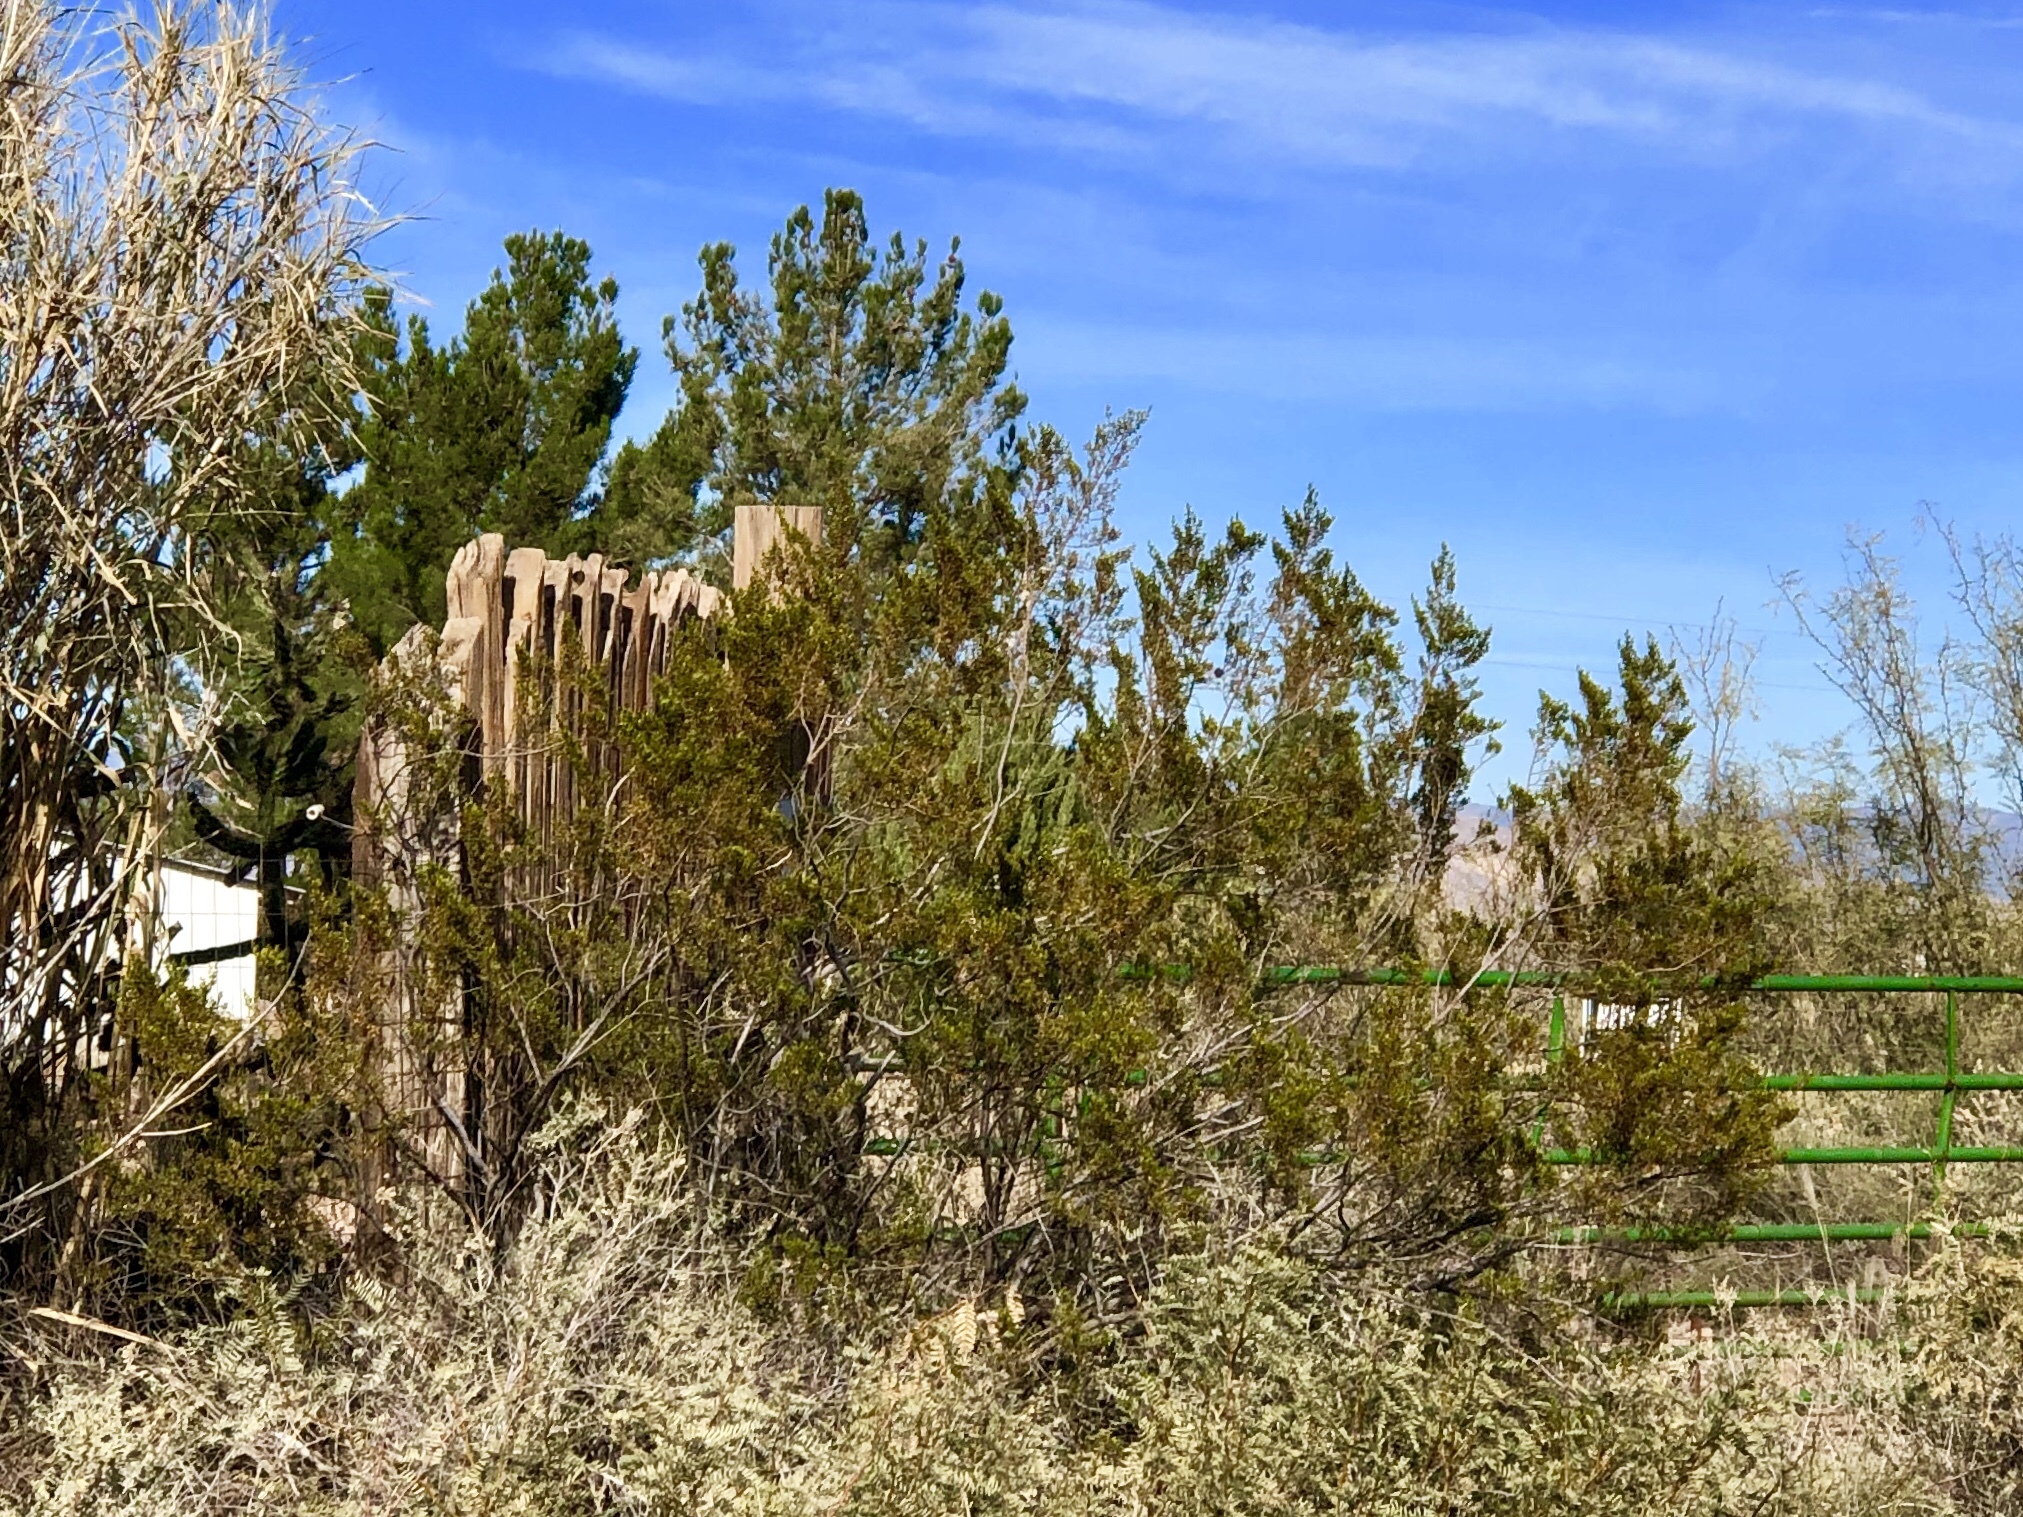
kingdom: Plantae
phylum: Tracheophyta
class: Magnoliopsida
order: Zygophyllales
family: Zygophyllaceae
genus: Larrea
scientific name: Larrea tridentata
